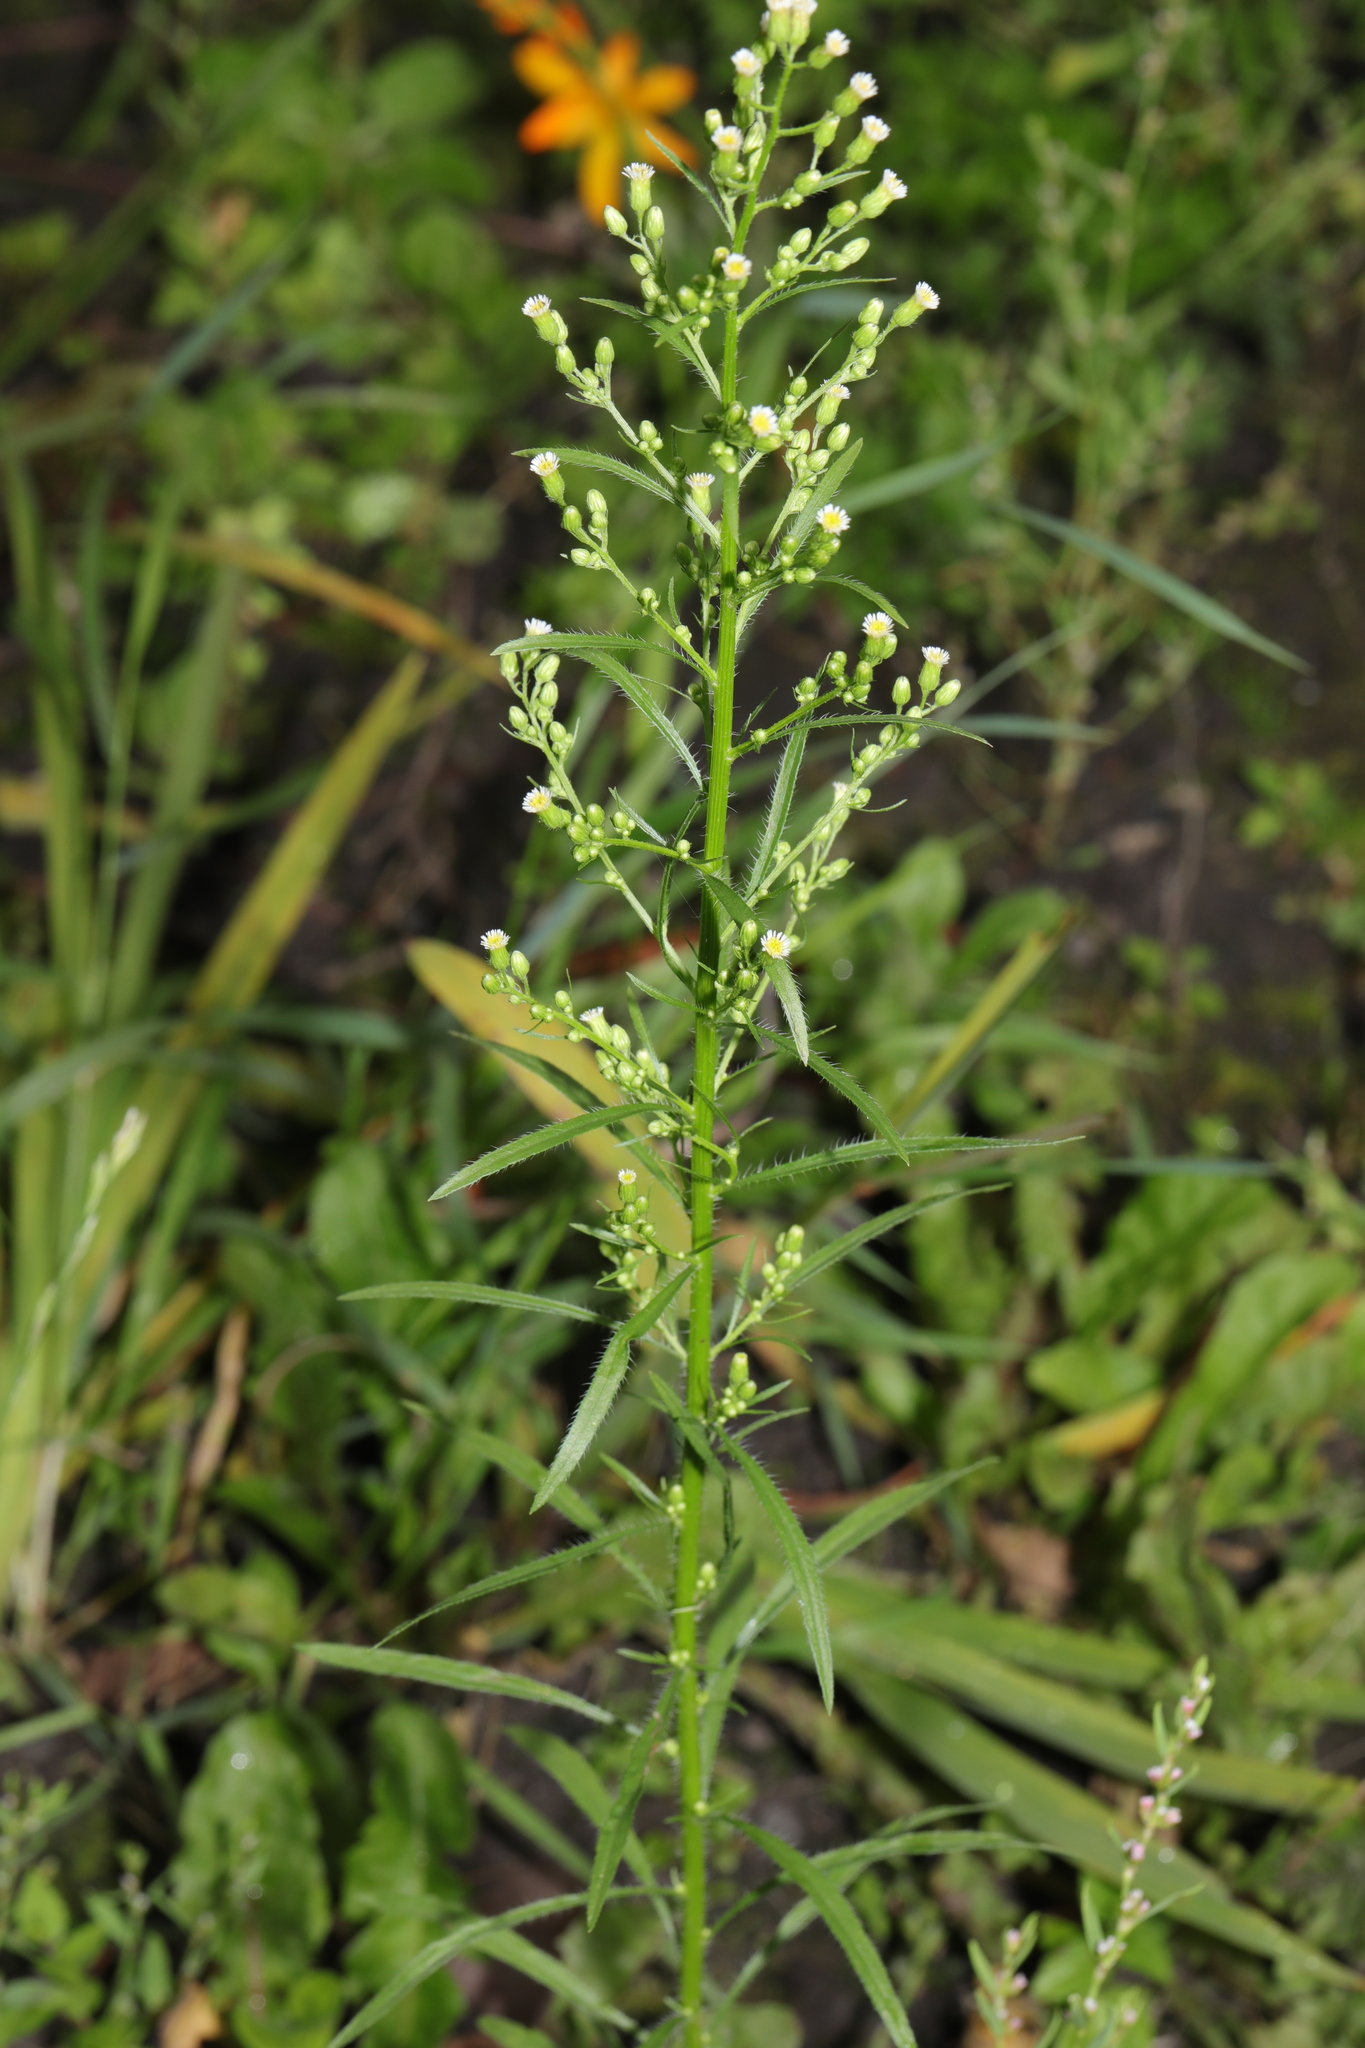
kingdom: Plantae
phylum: Tracheophyta
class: Magnoliopsida
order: Asterales
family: Asteraceae
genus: Erigeron
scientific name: Erigeron canadensis
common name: Canadian fleabane
